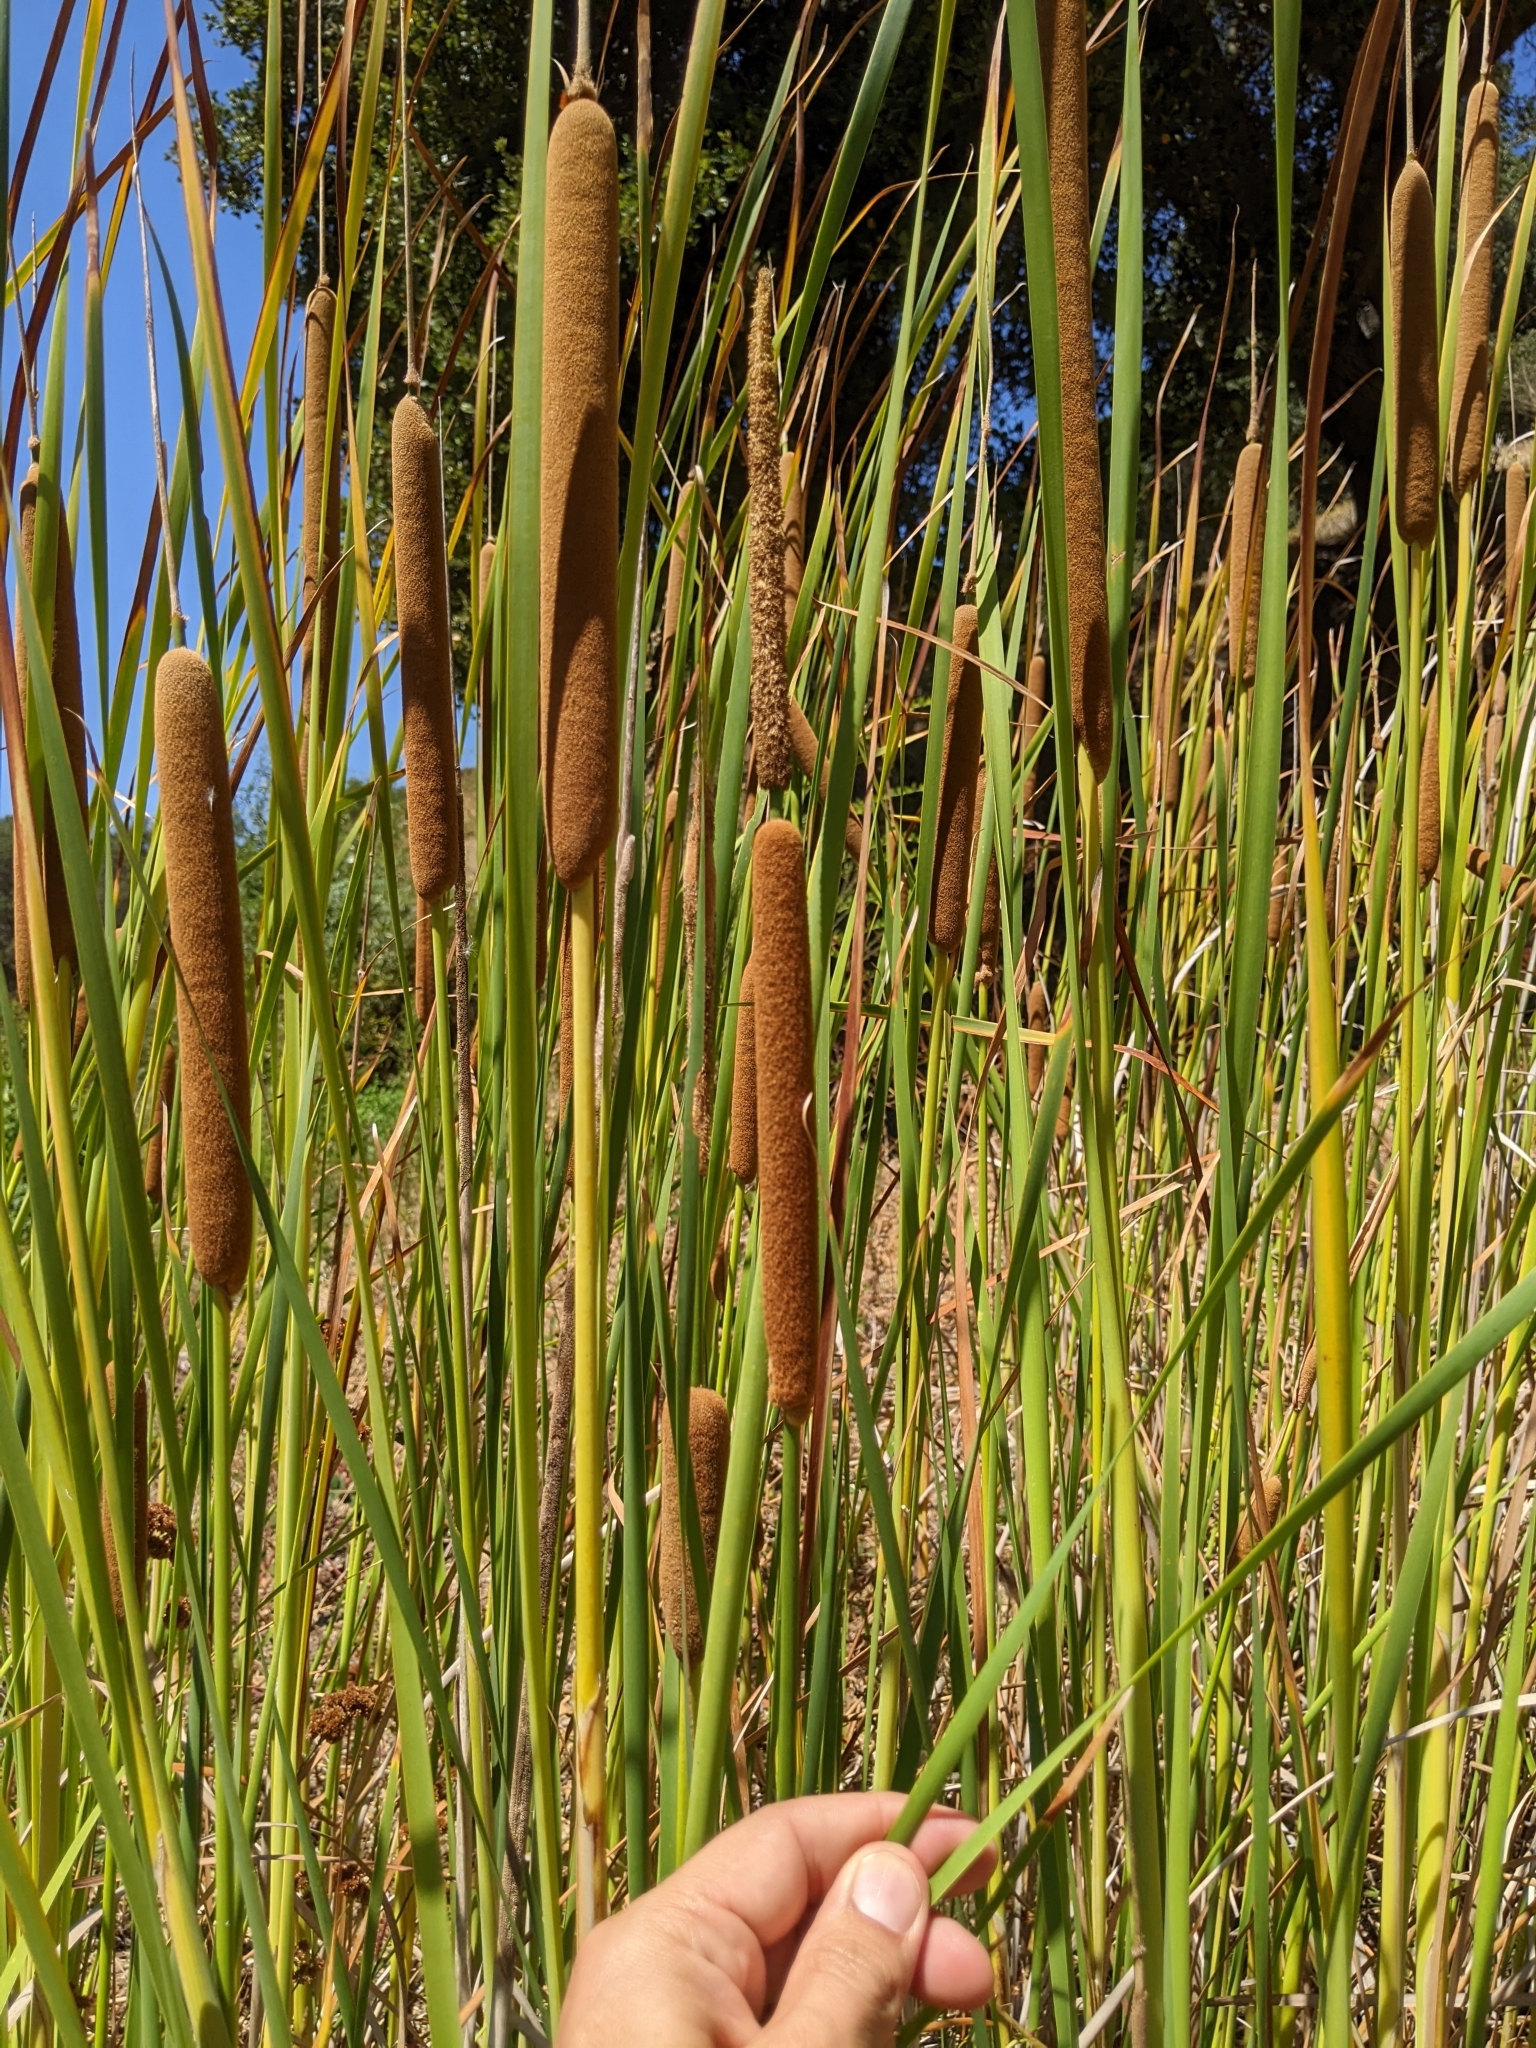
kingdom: Plantae
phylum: Tracheophyta
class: Liliopsida
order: Poales
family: Typhaceae
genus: Typha
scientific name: Typha angustifolia
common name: Lesser bulrush
